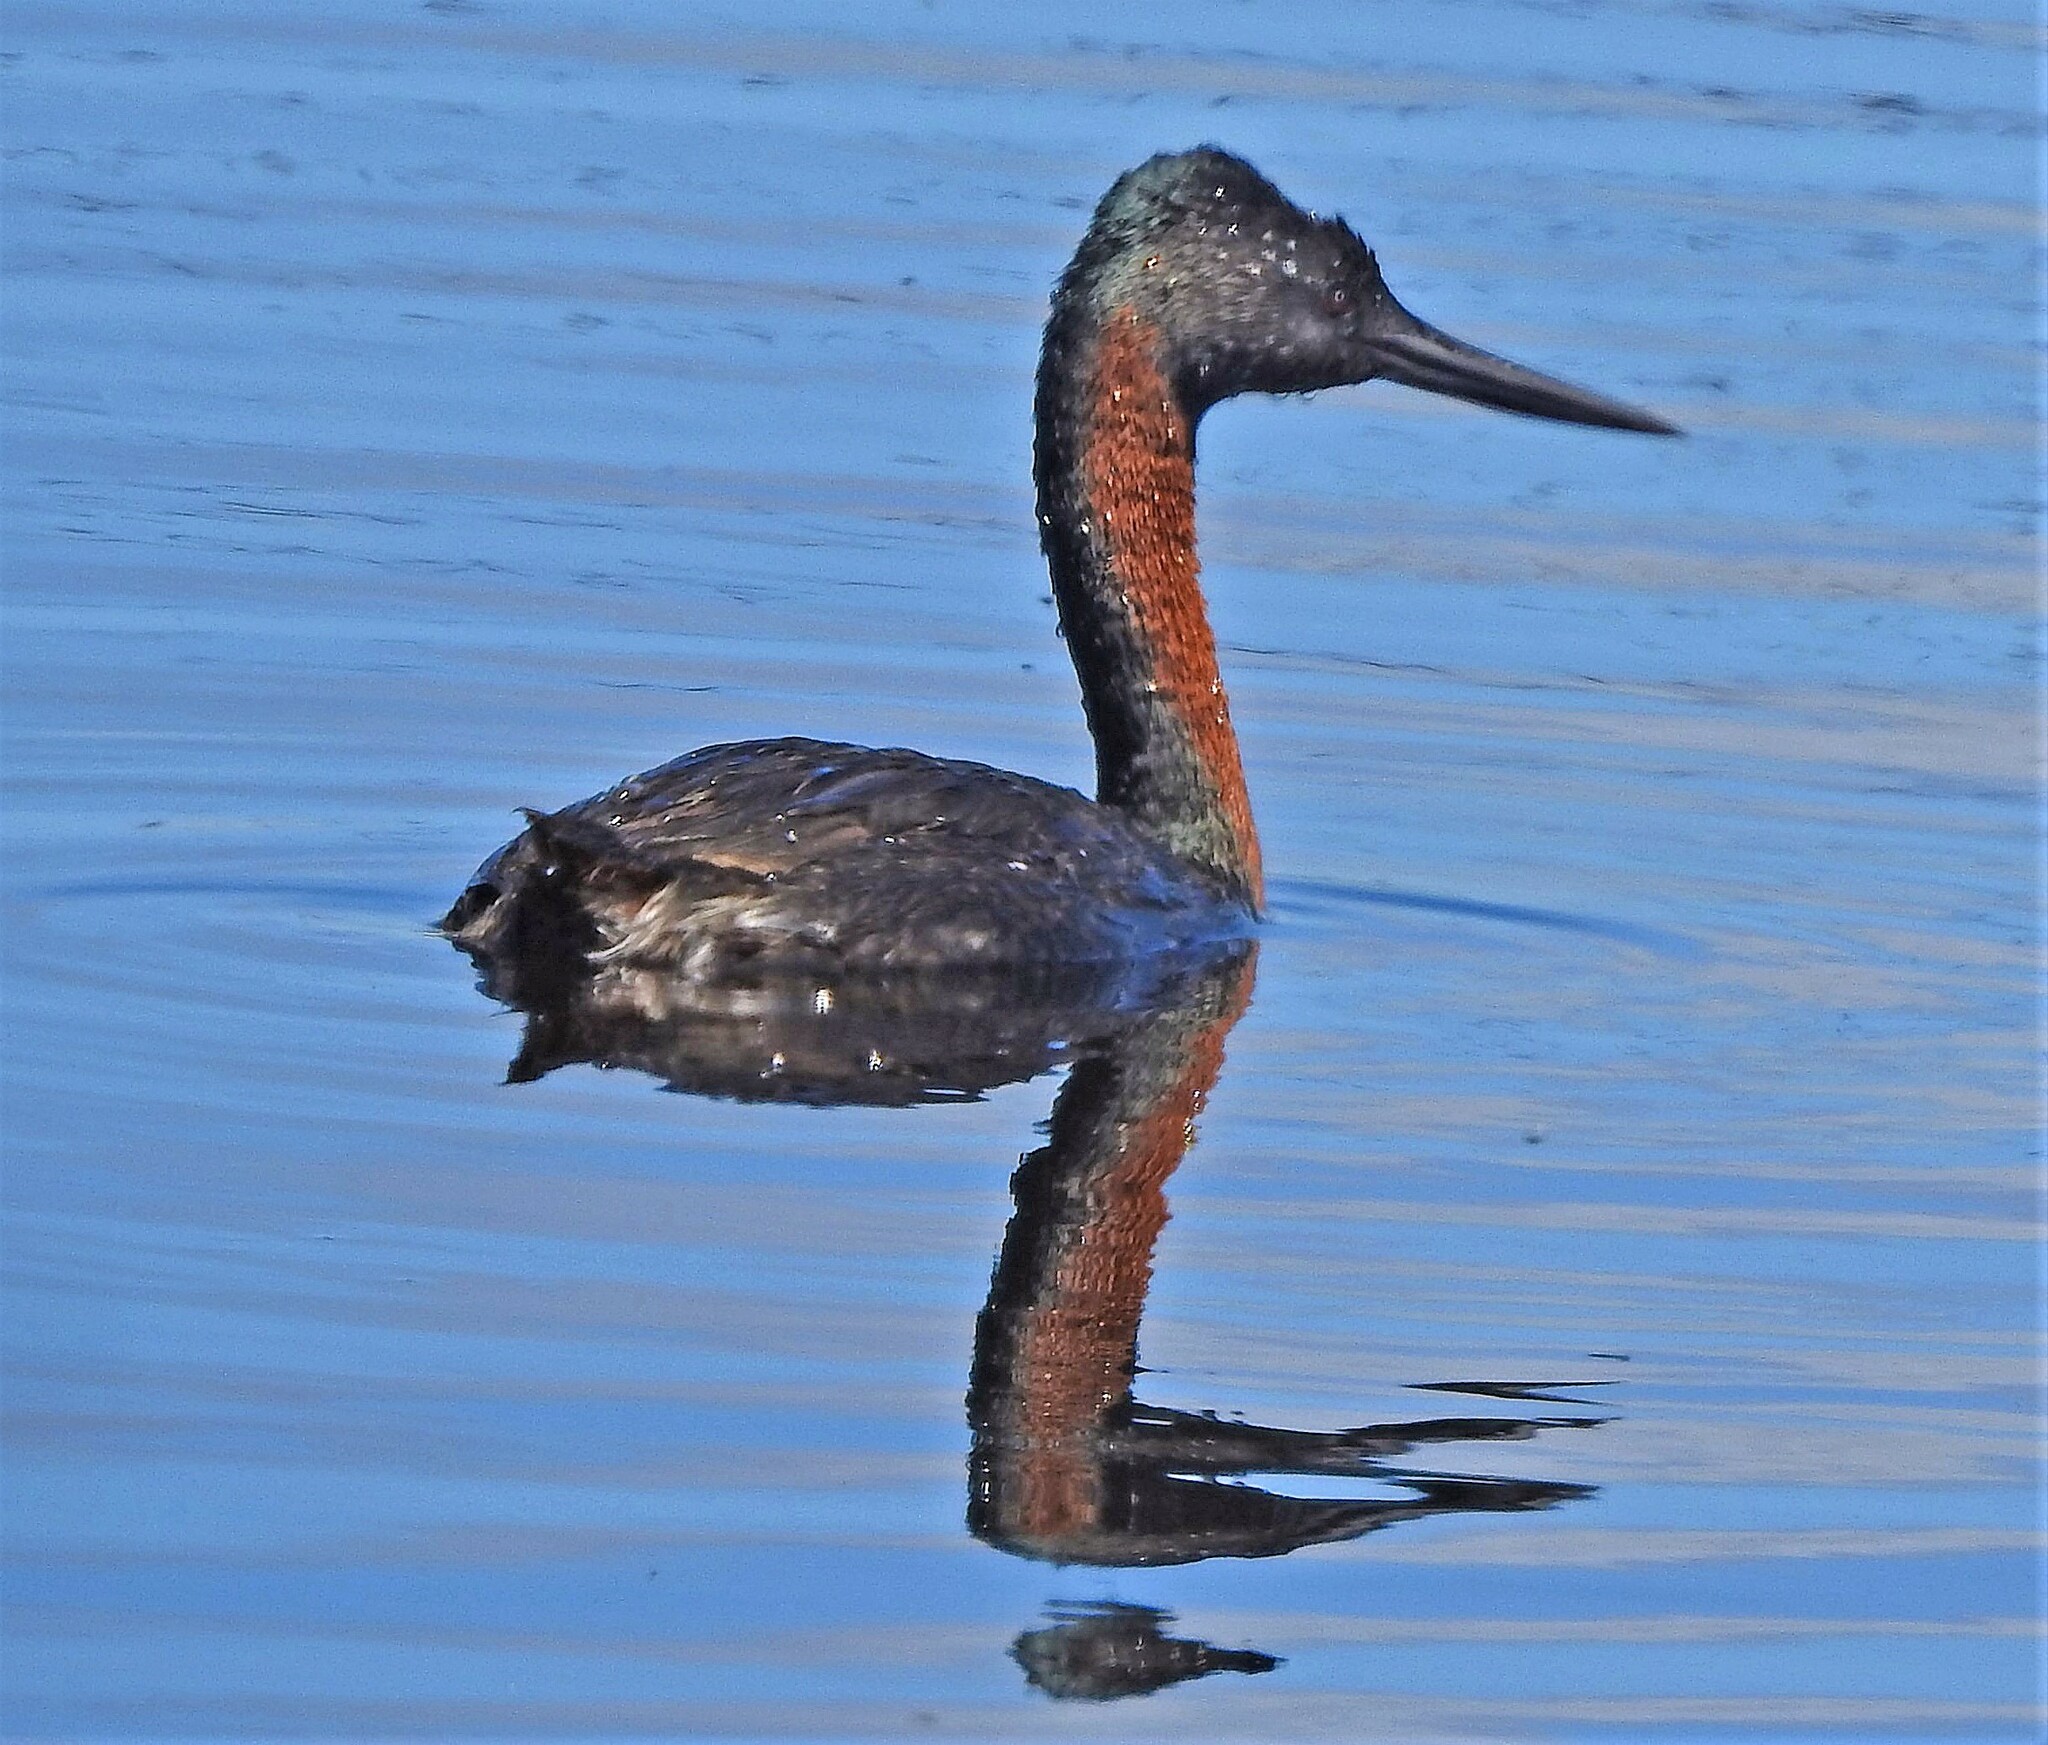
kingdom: Animalia
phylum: Chordata
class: Aves
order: Podicipediformes
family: Podicipedidae
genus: Podiceps
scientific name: Podiceps major
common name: Great grebe
